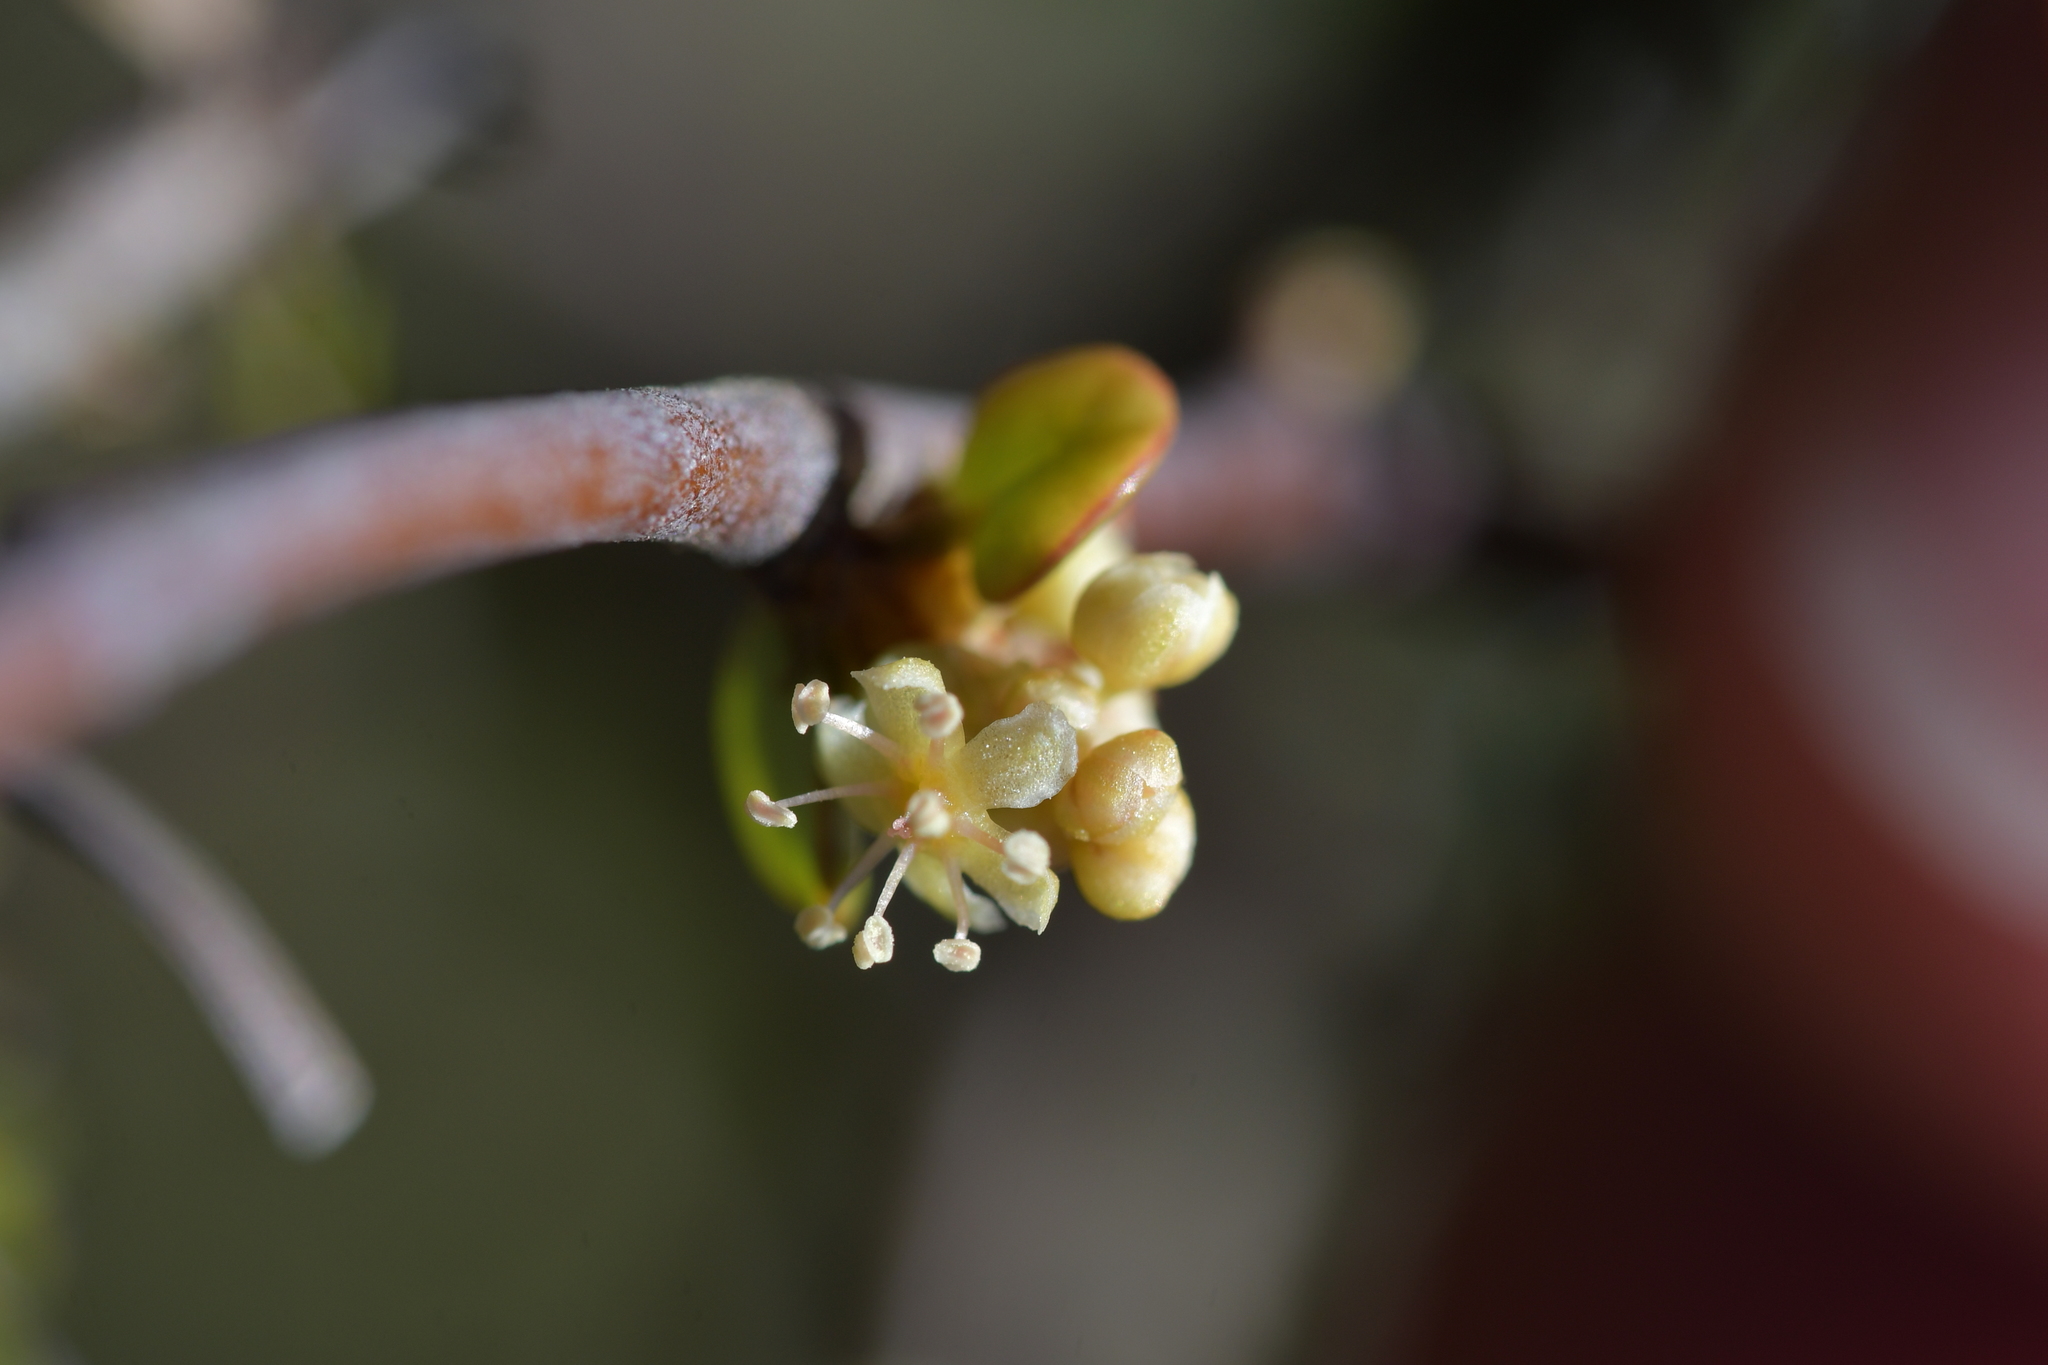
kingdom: Plantae
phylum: Tracheophyta
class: Magnoliopsida
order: Caryophyllales
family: Polygonaceae
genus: Muehlenbeckia
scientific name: Muehlenbeckia complexa
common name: Wireplant
